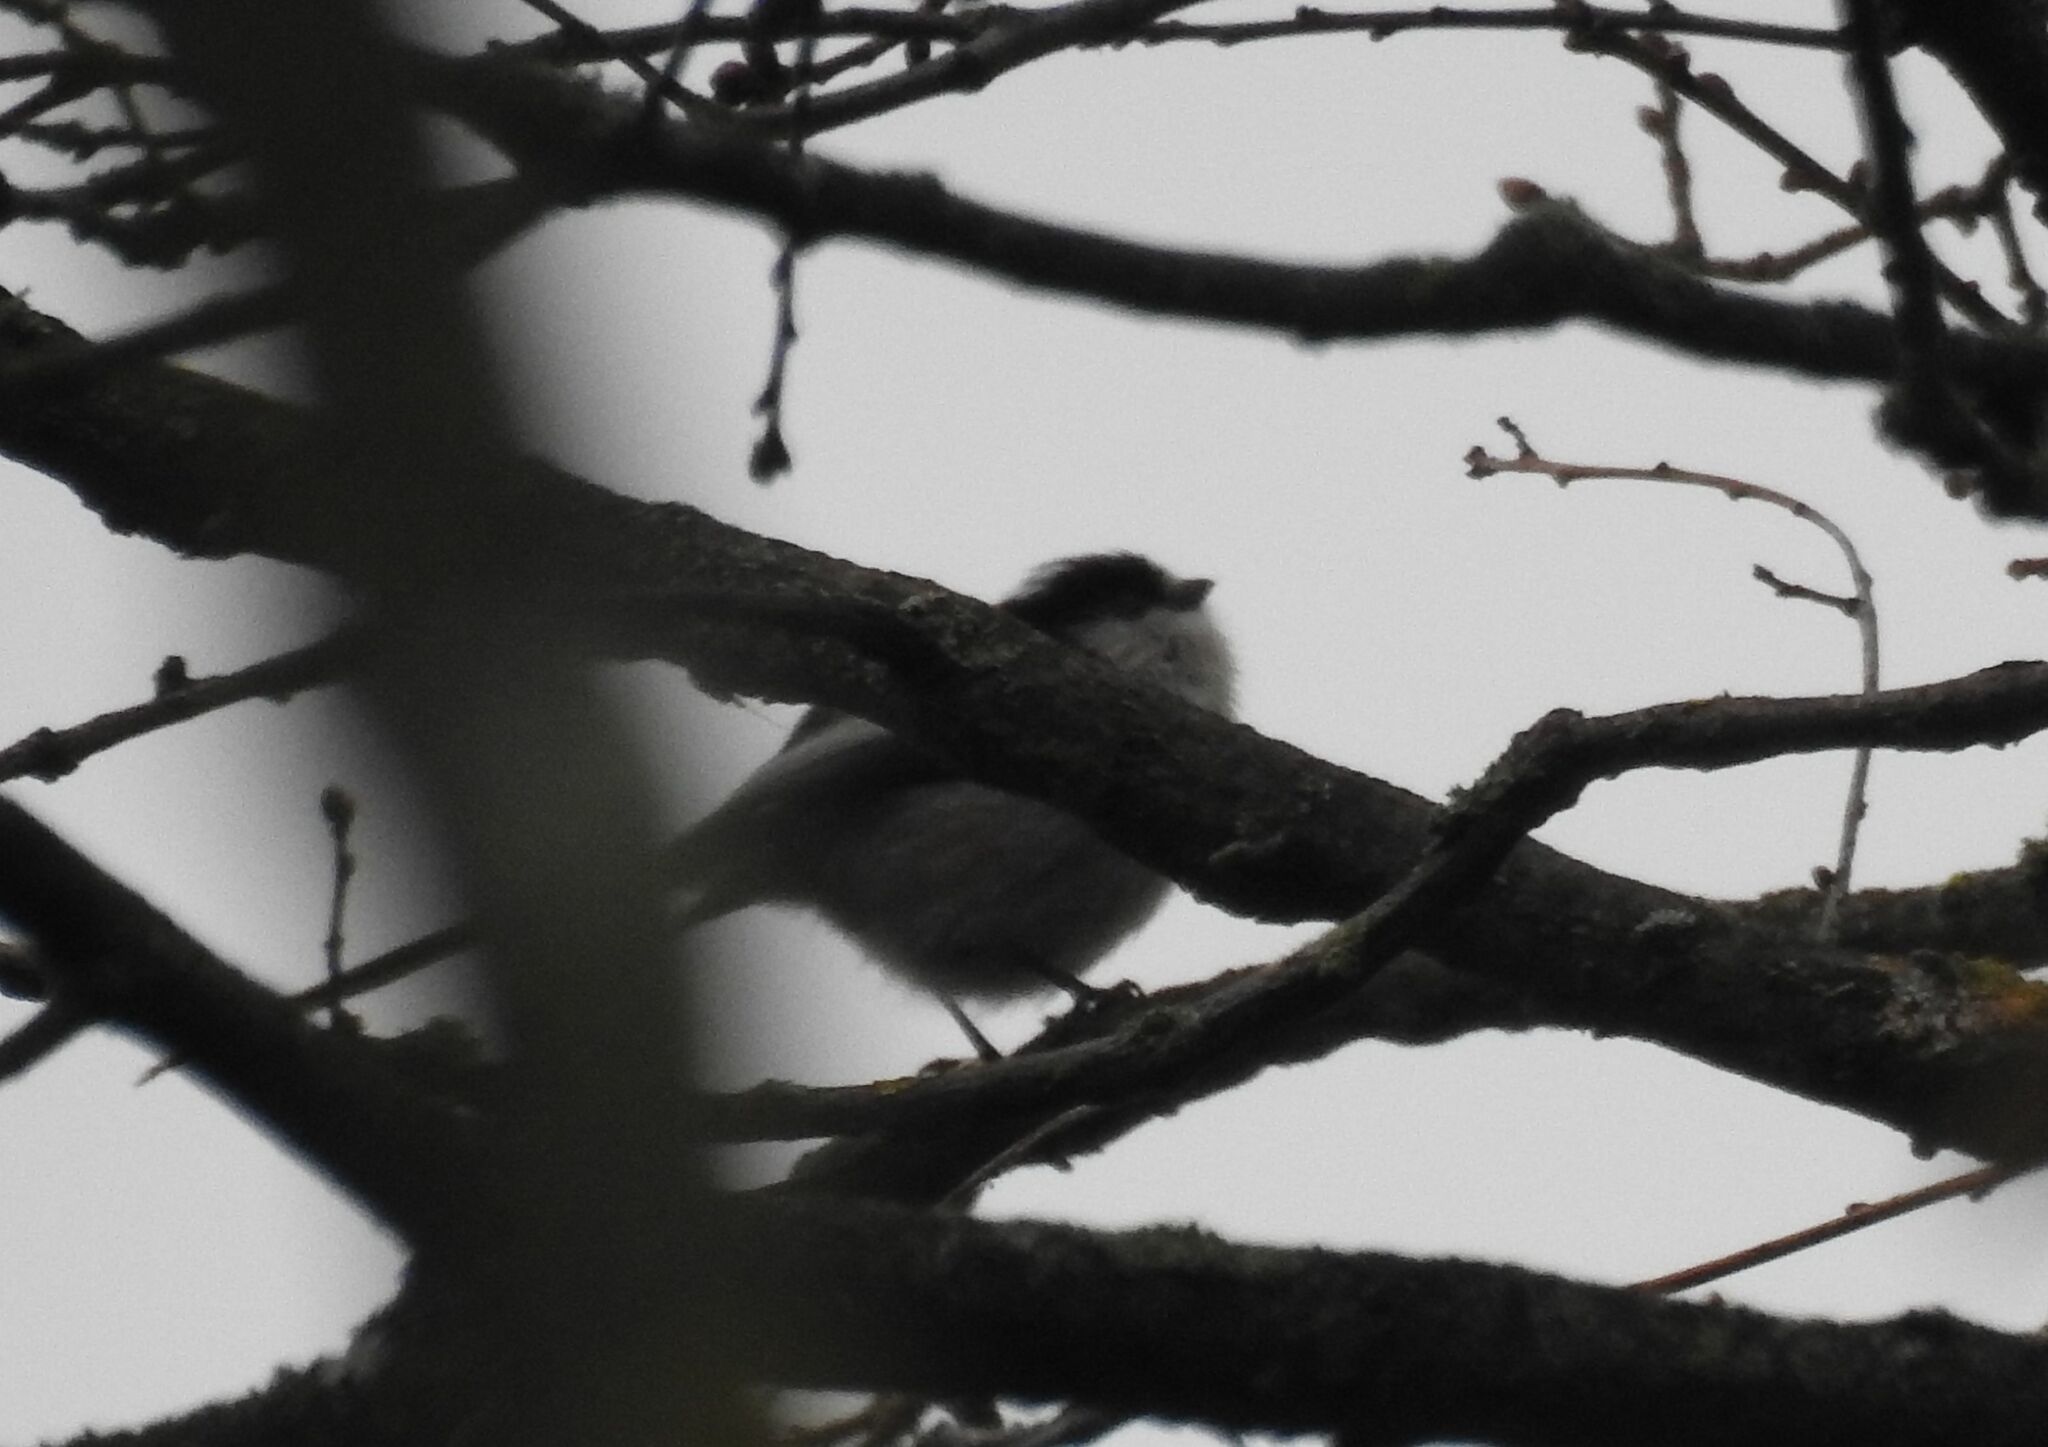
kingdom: Animalia
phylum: Chordata
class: Aves
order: Passeriformes
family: Aegithalidae
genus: Aegithalos
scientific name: Aegithalos caudatus
